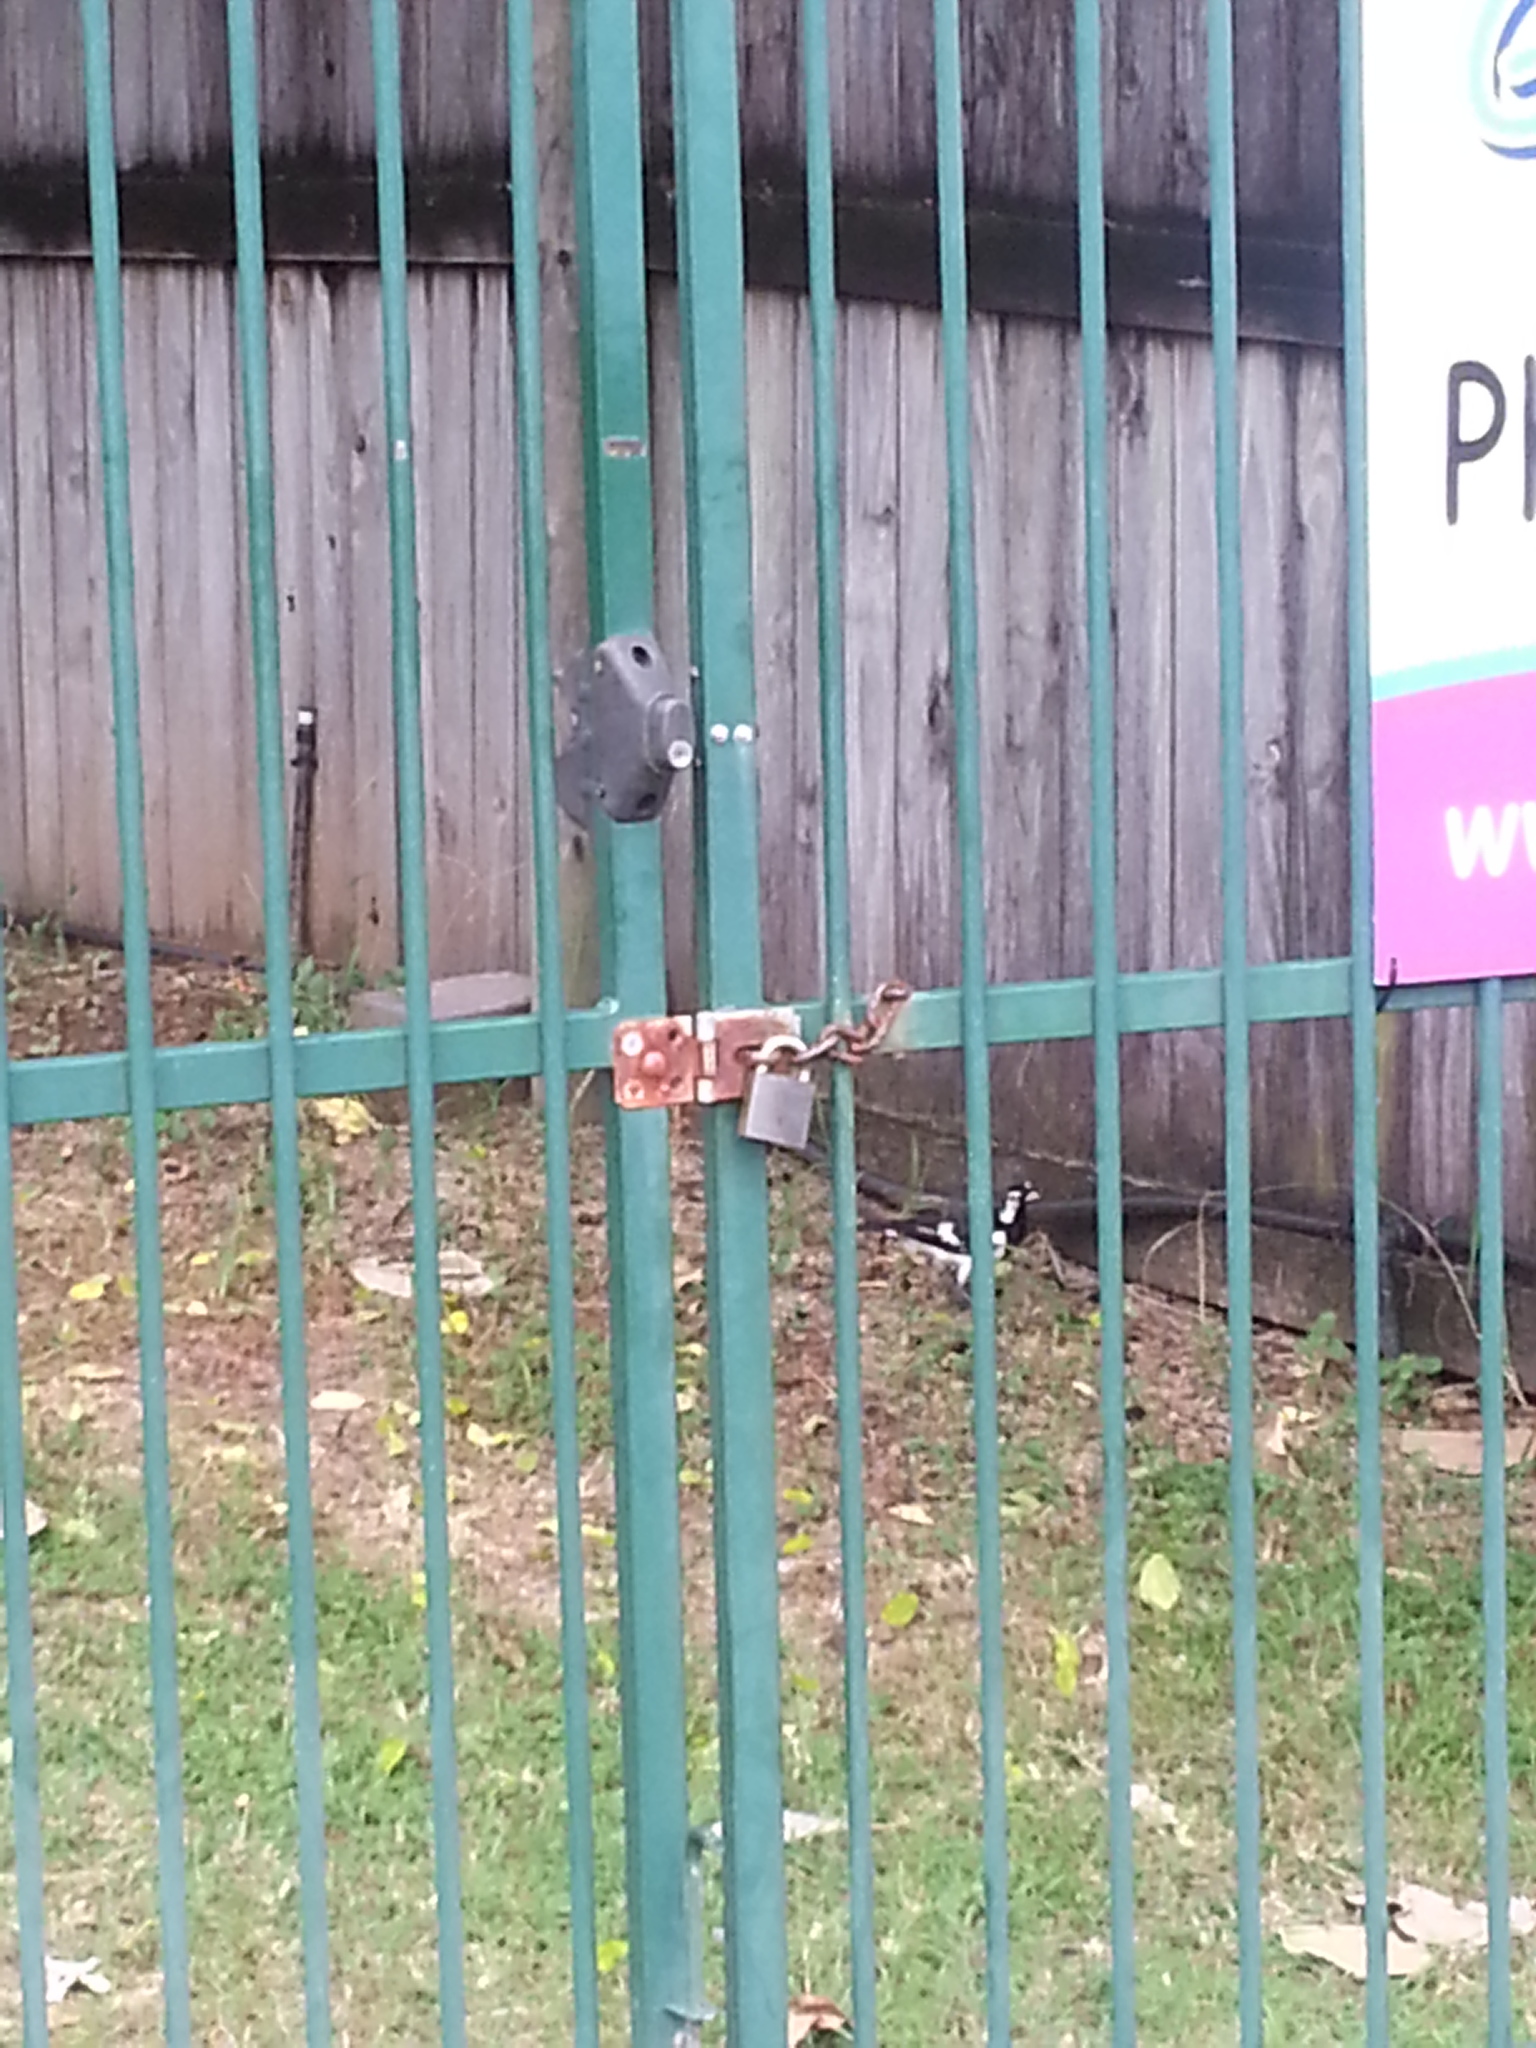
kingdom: Animalia
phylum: Chordata
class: Aves
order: Passeriformes
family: Monarchidae
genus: Grallina
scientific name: Grallina cyanoleuca
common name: Magpie-lark
